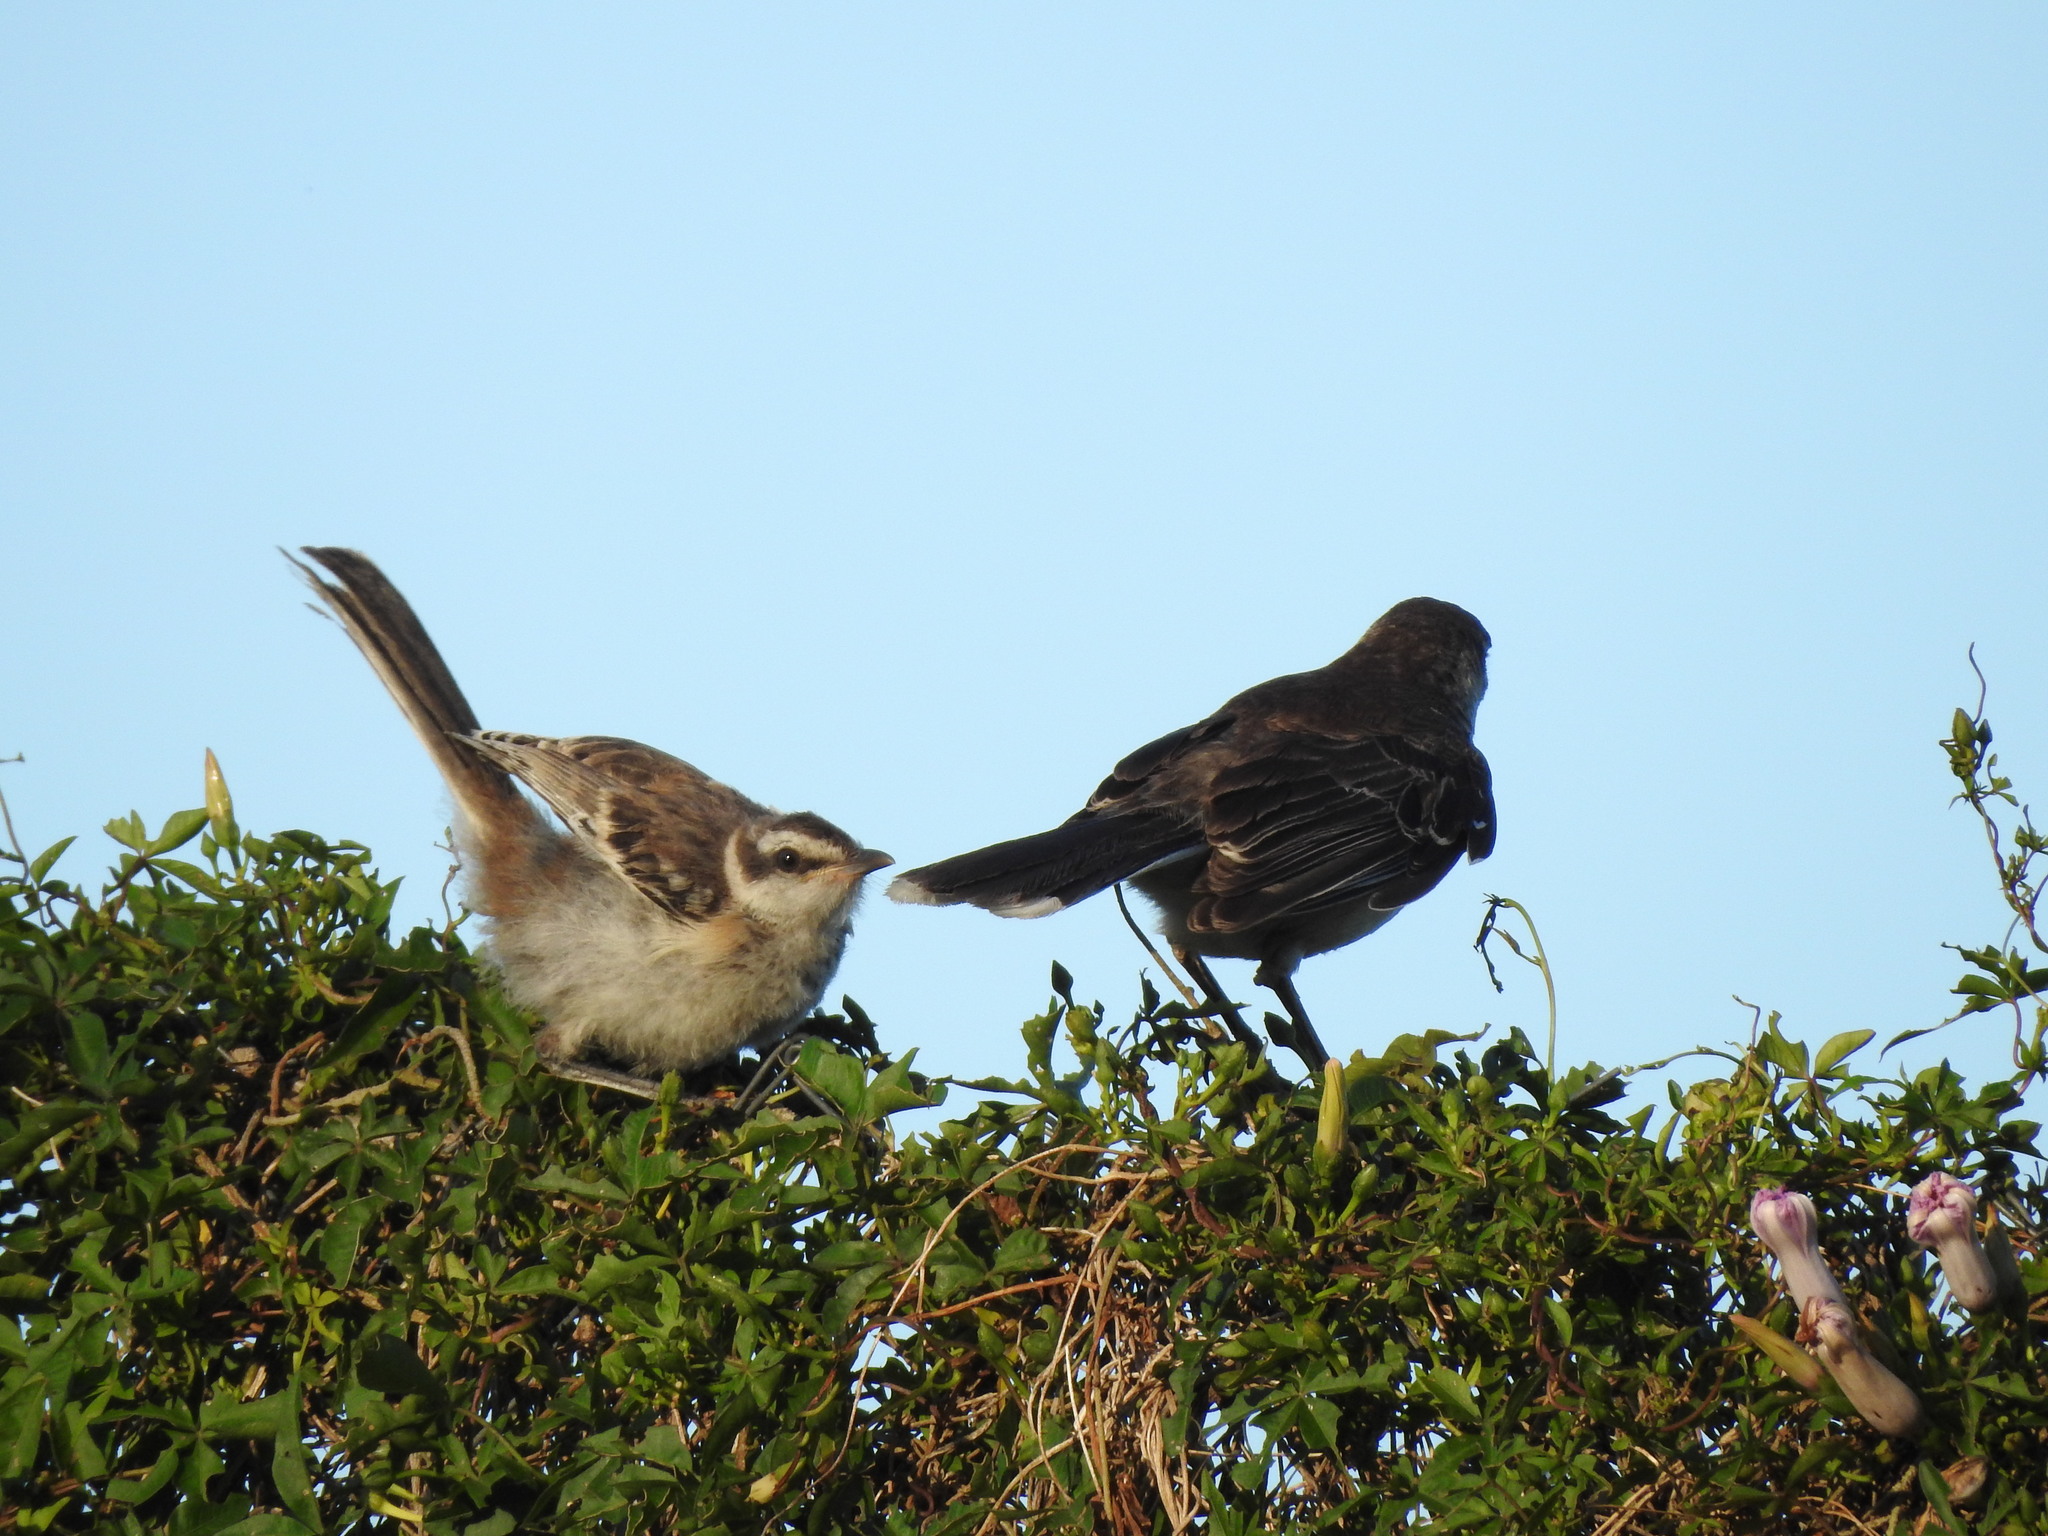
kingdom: Animalia
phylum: Chordata
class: Aves
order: Passeriformes
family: Mimidae
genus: Mimus
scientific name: Mimus saturninus
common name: Chalk-browed mockingbird
